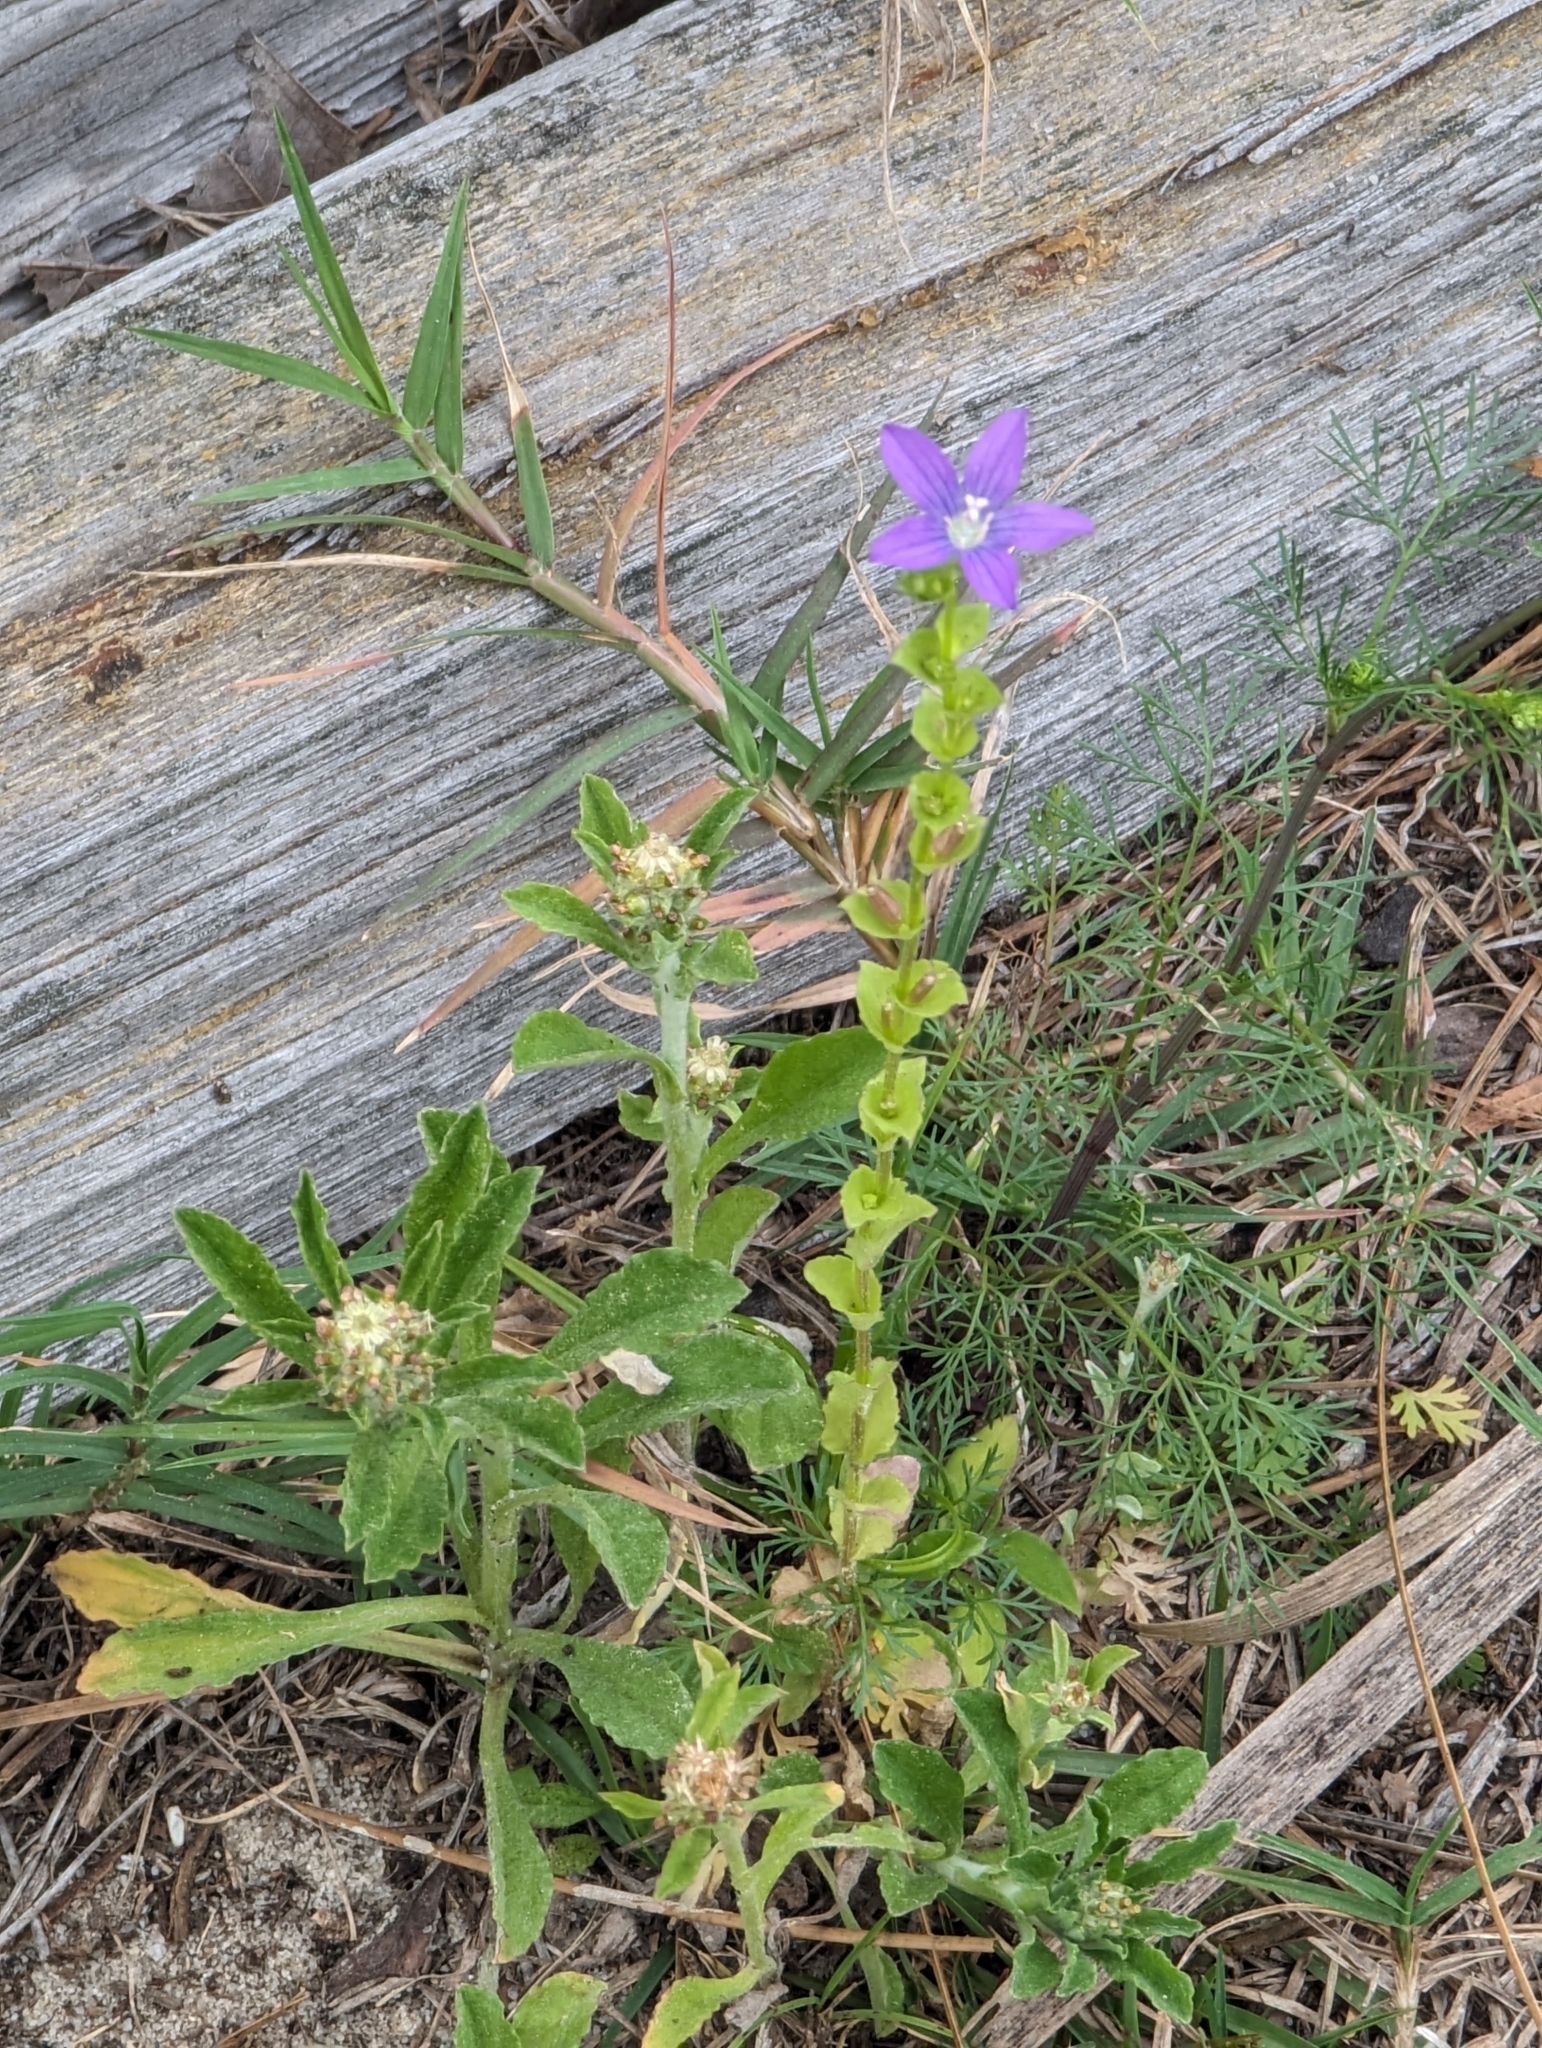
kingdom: Plantae
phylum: Tracheophyta
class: Magnoliopsida
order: Asterales
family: Campanulaceae
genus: Triodanis
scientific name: Triodanis perfoliata
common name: Clasping venus' looking-glass
